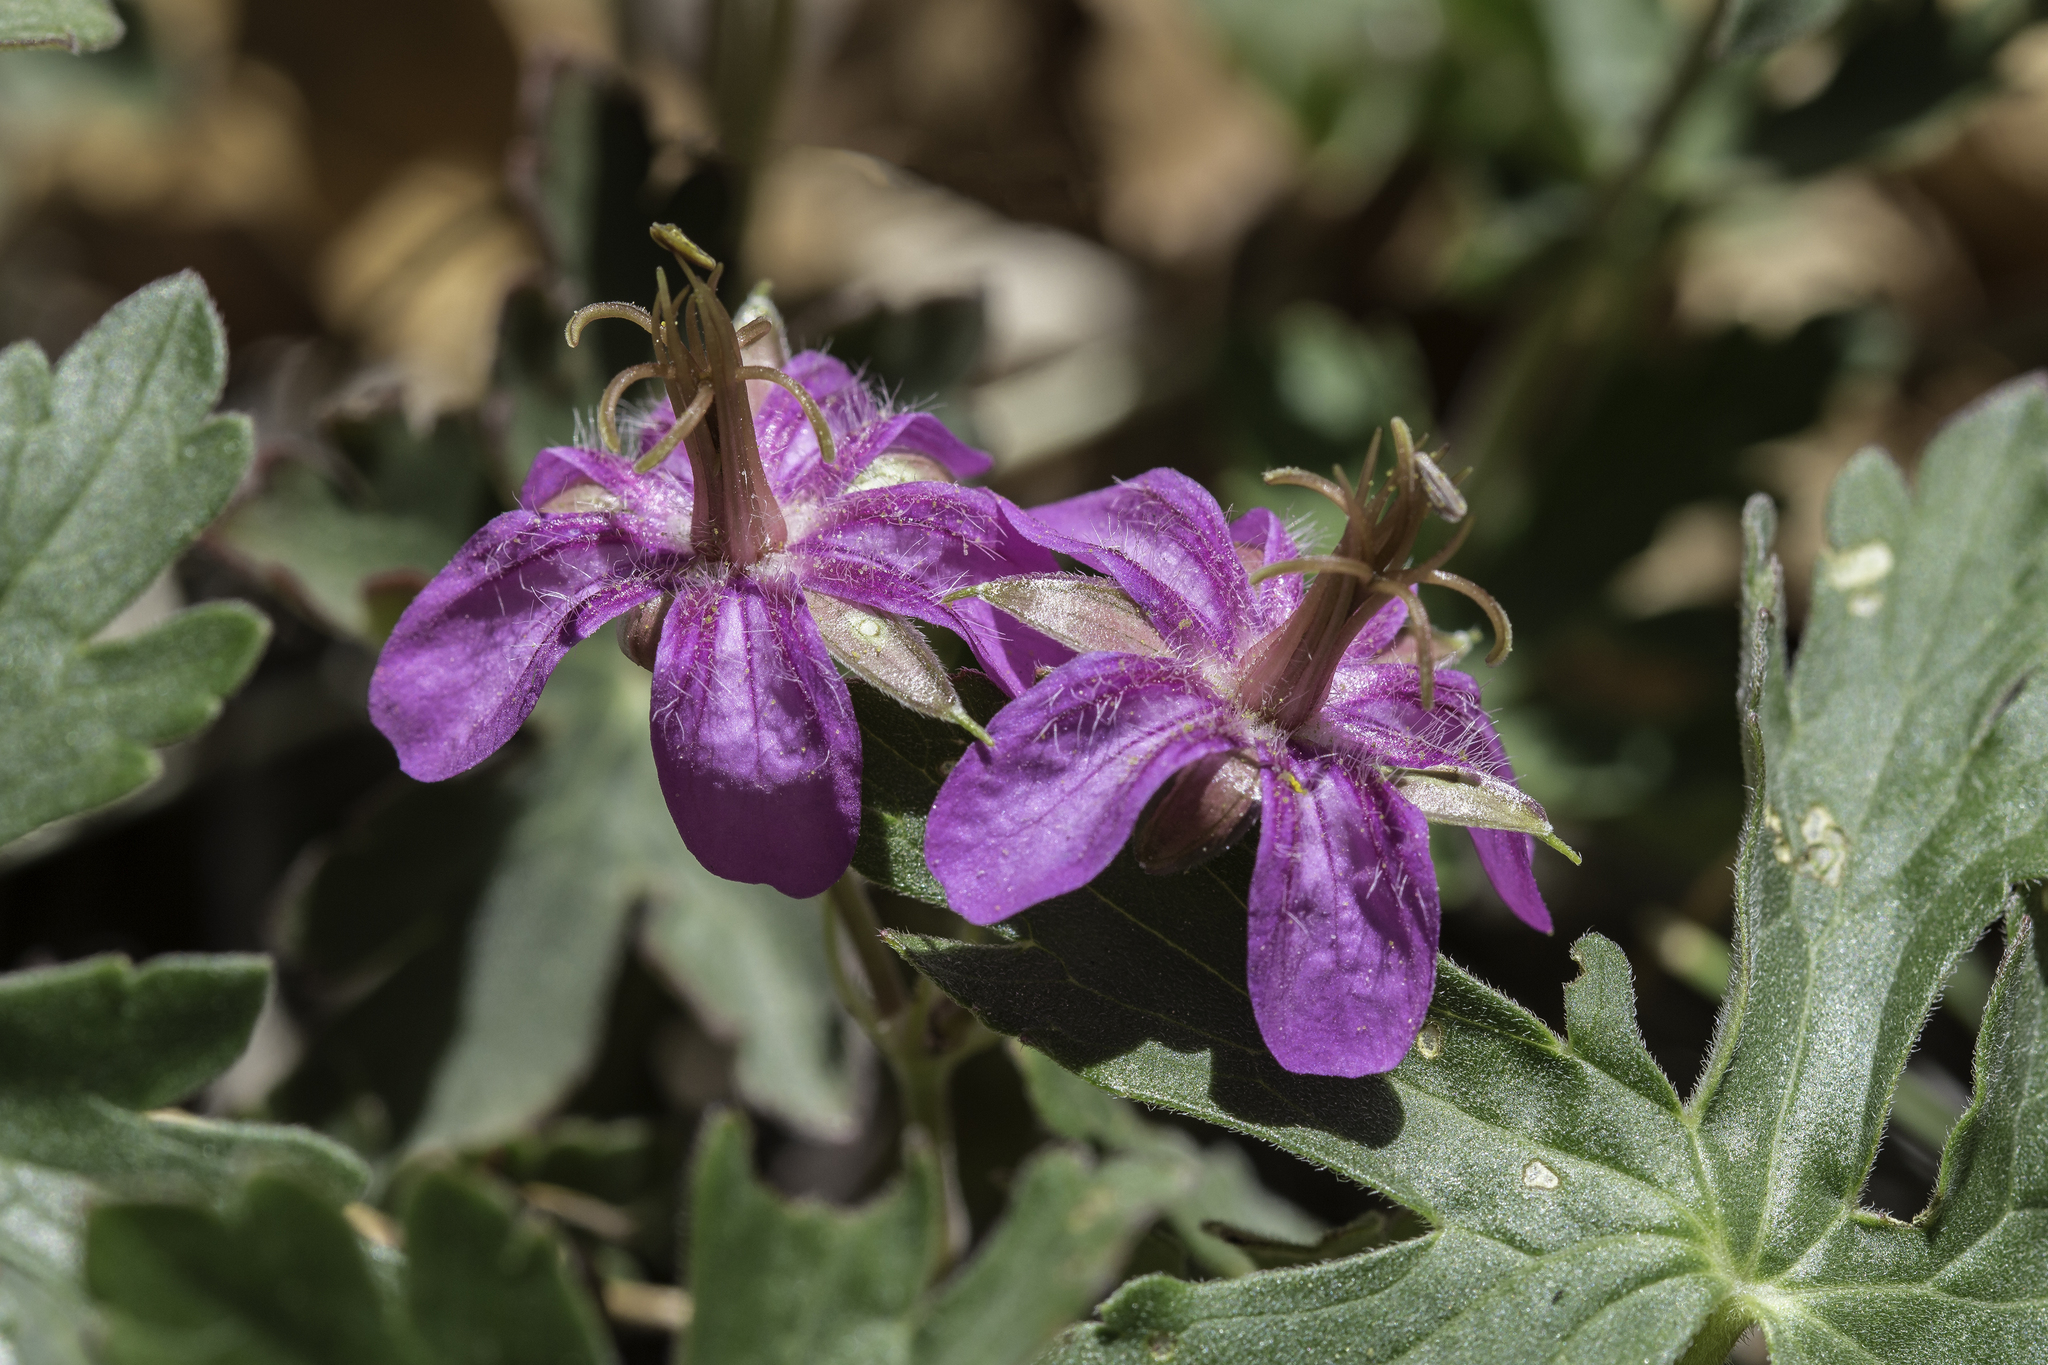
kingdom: Plantae
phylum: Tracheophyta
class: Magnoliopsida
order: Geraniales
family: Geraniaceae
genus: Geranium
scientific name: Geranium caespitosum
